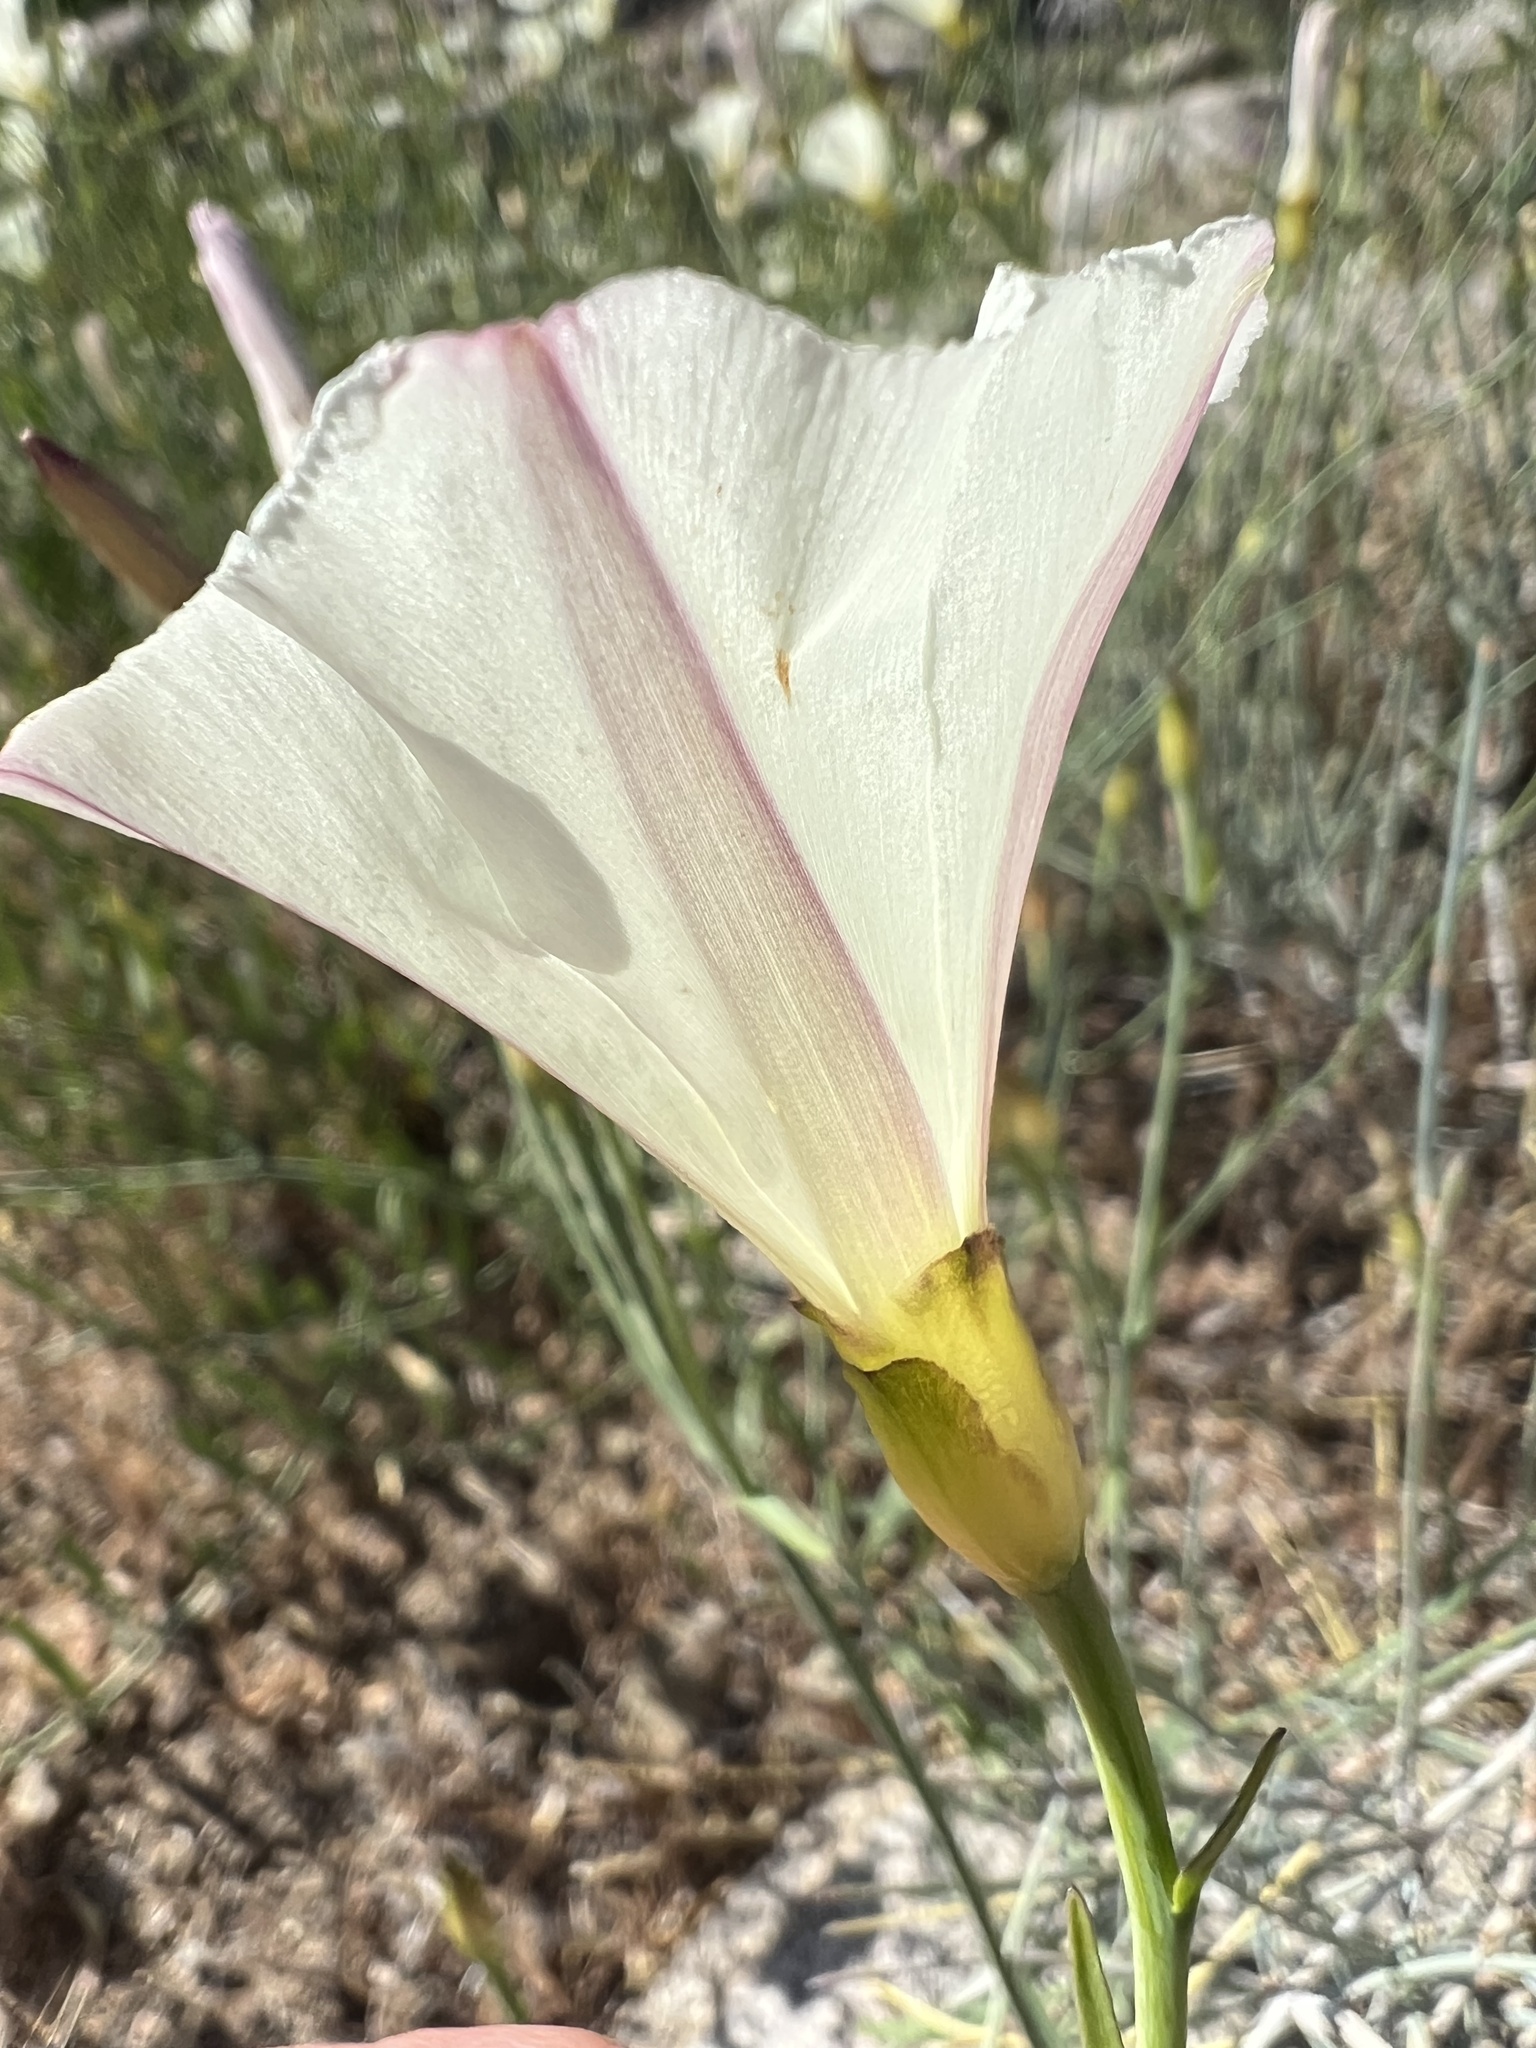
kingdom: Plantae
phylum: Tracheophyta
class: Magnoliopsida
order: Solanales
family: Convolvulaceae
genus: Calystegia
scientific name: Calystegia longipes
